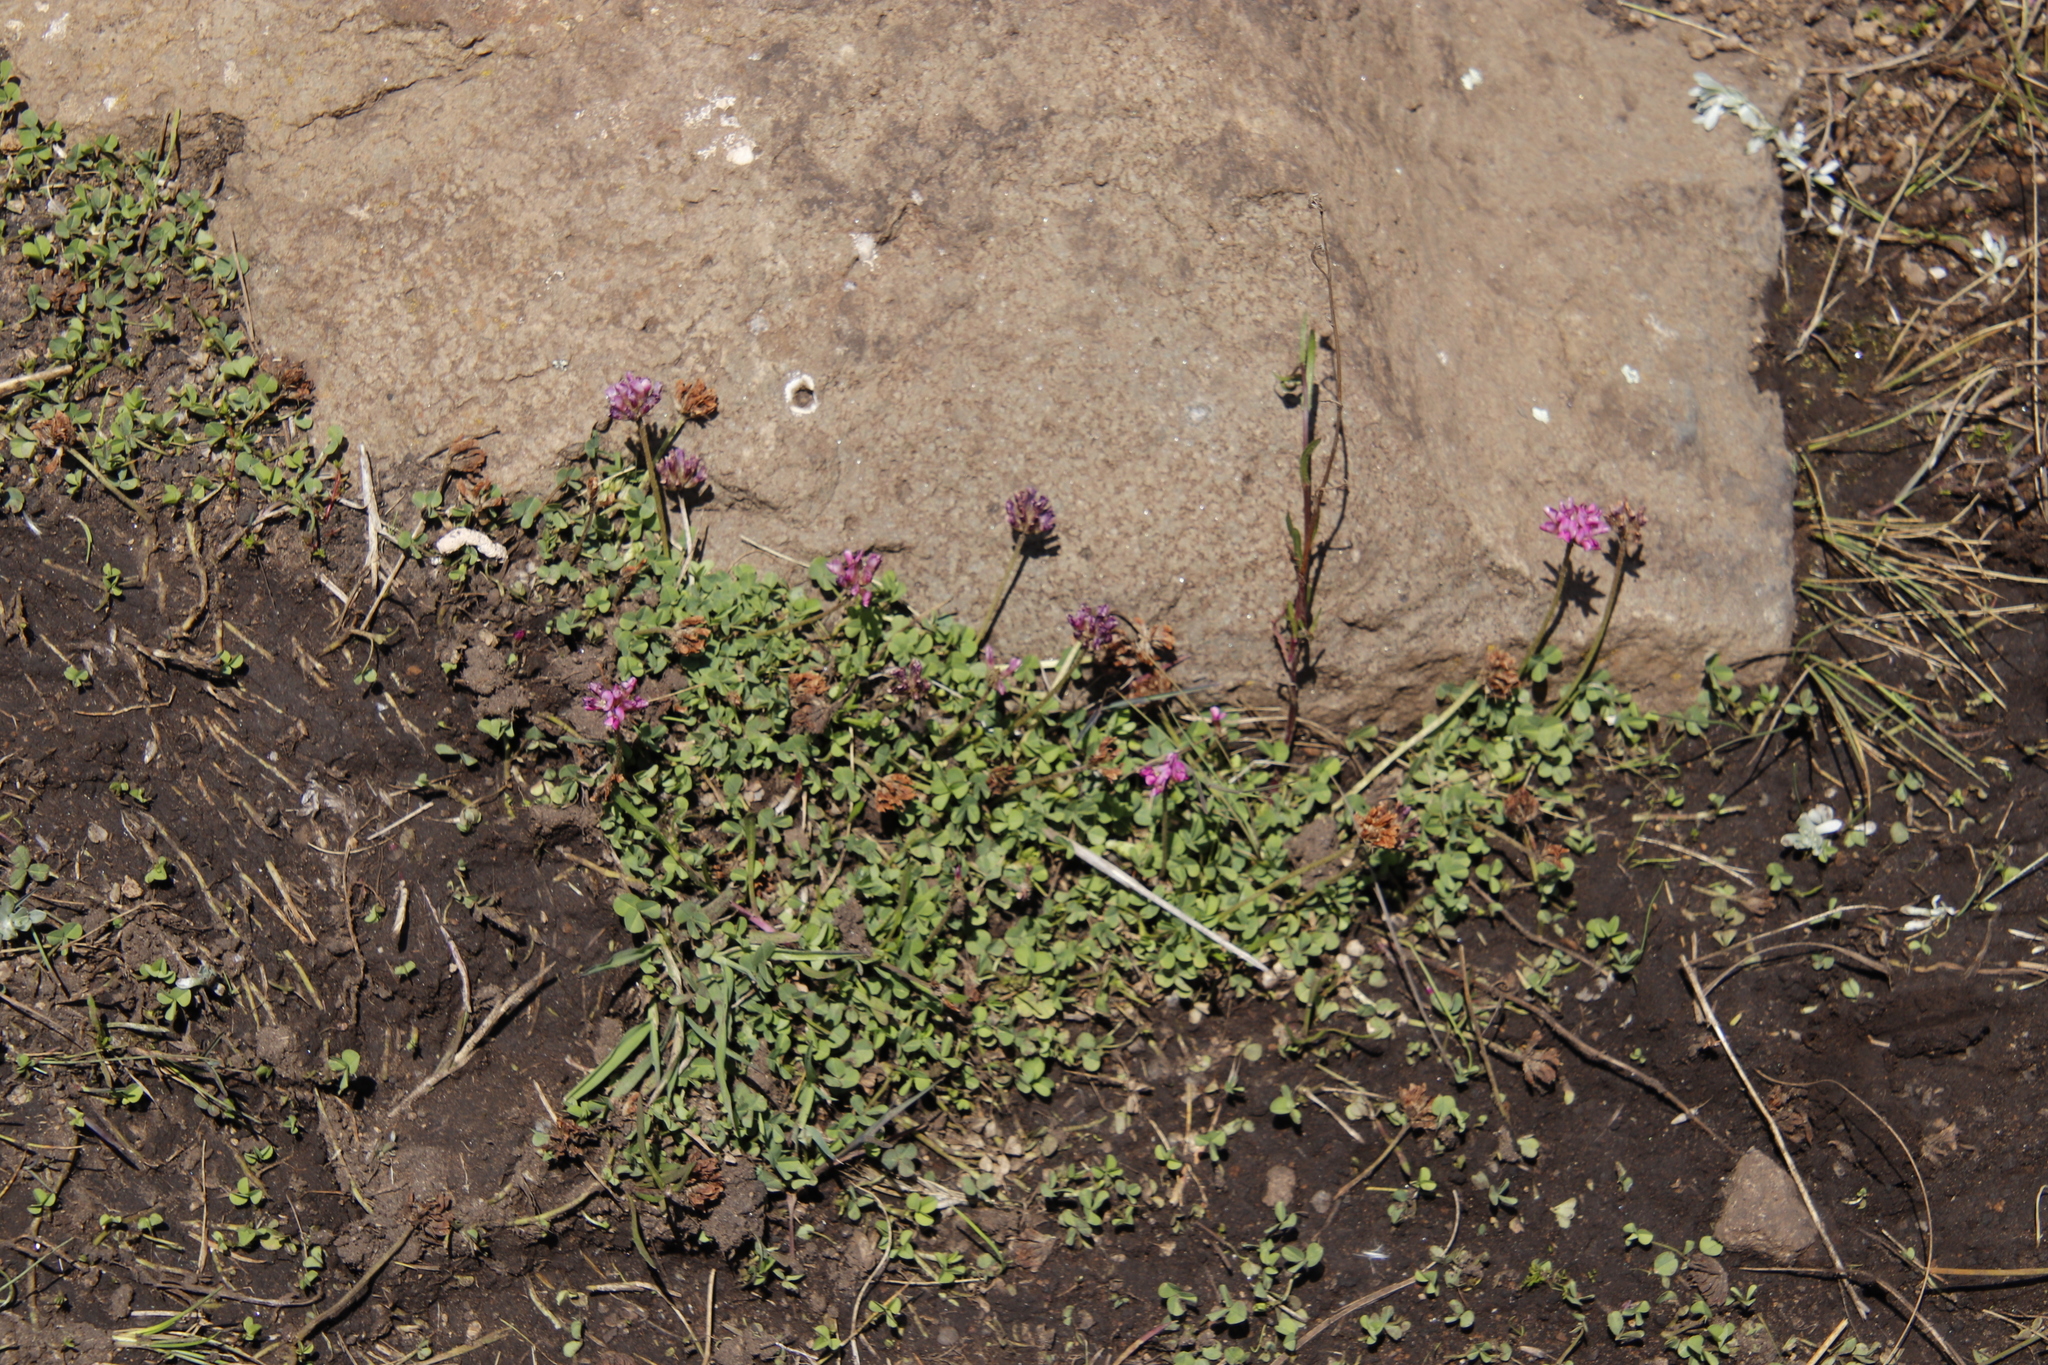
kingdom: Plantae
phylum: Tracheophyta
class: Magnoliopsida
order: Fabales
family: Fabaceae
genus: Trifolium
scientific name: Trifolium burchellianum
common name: Burchell's clover
